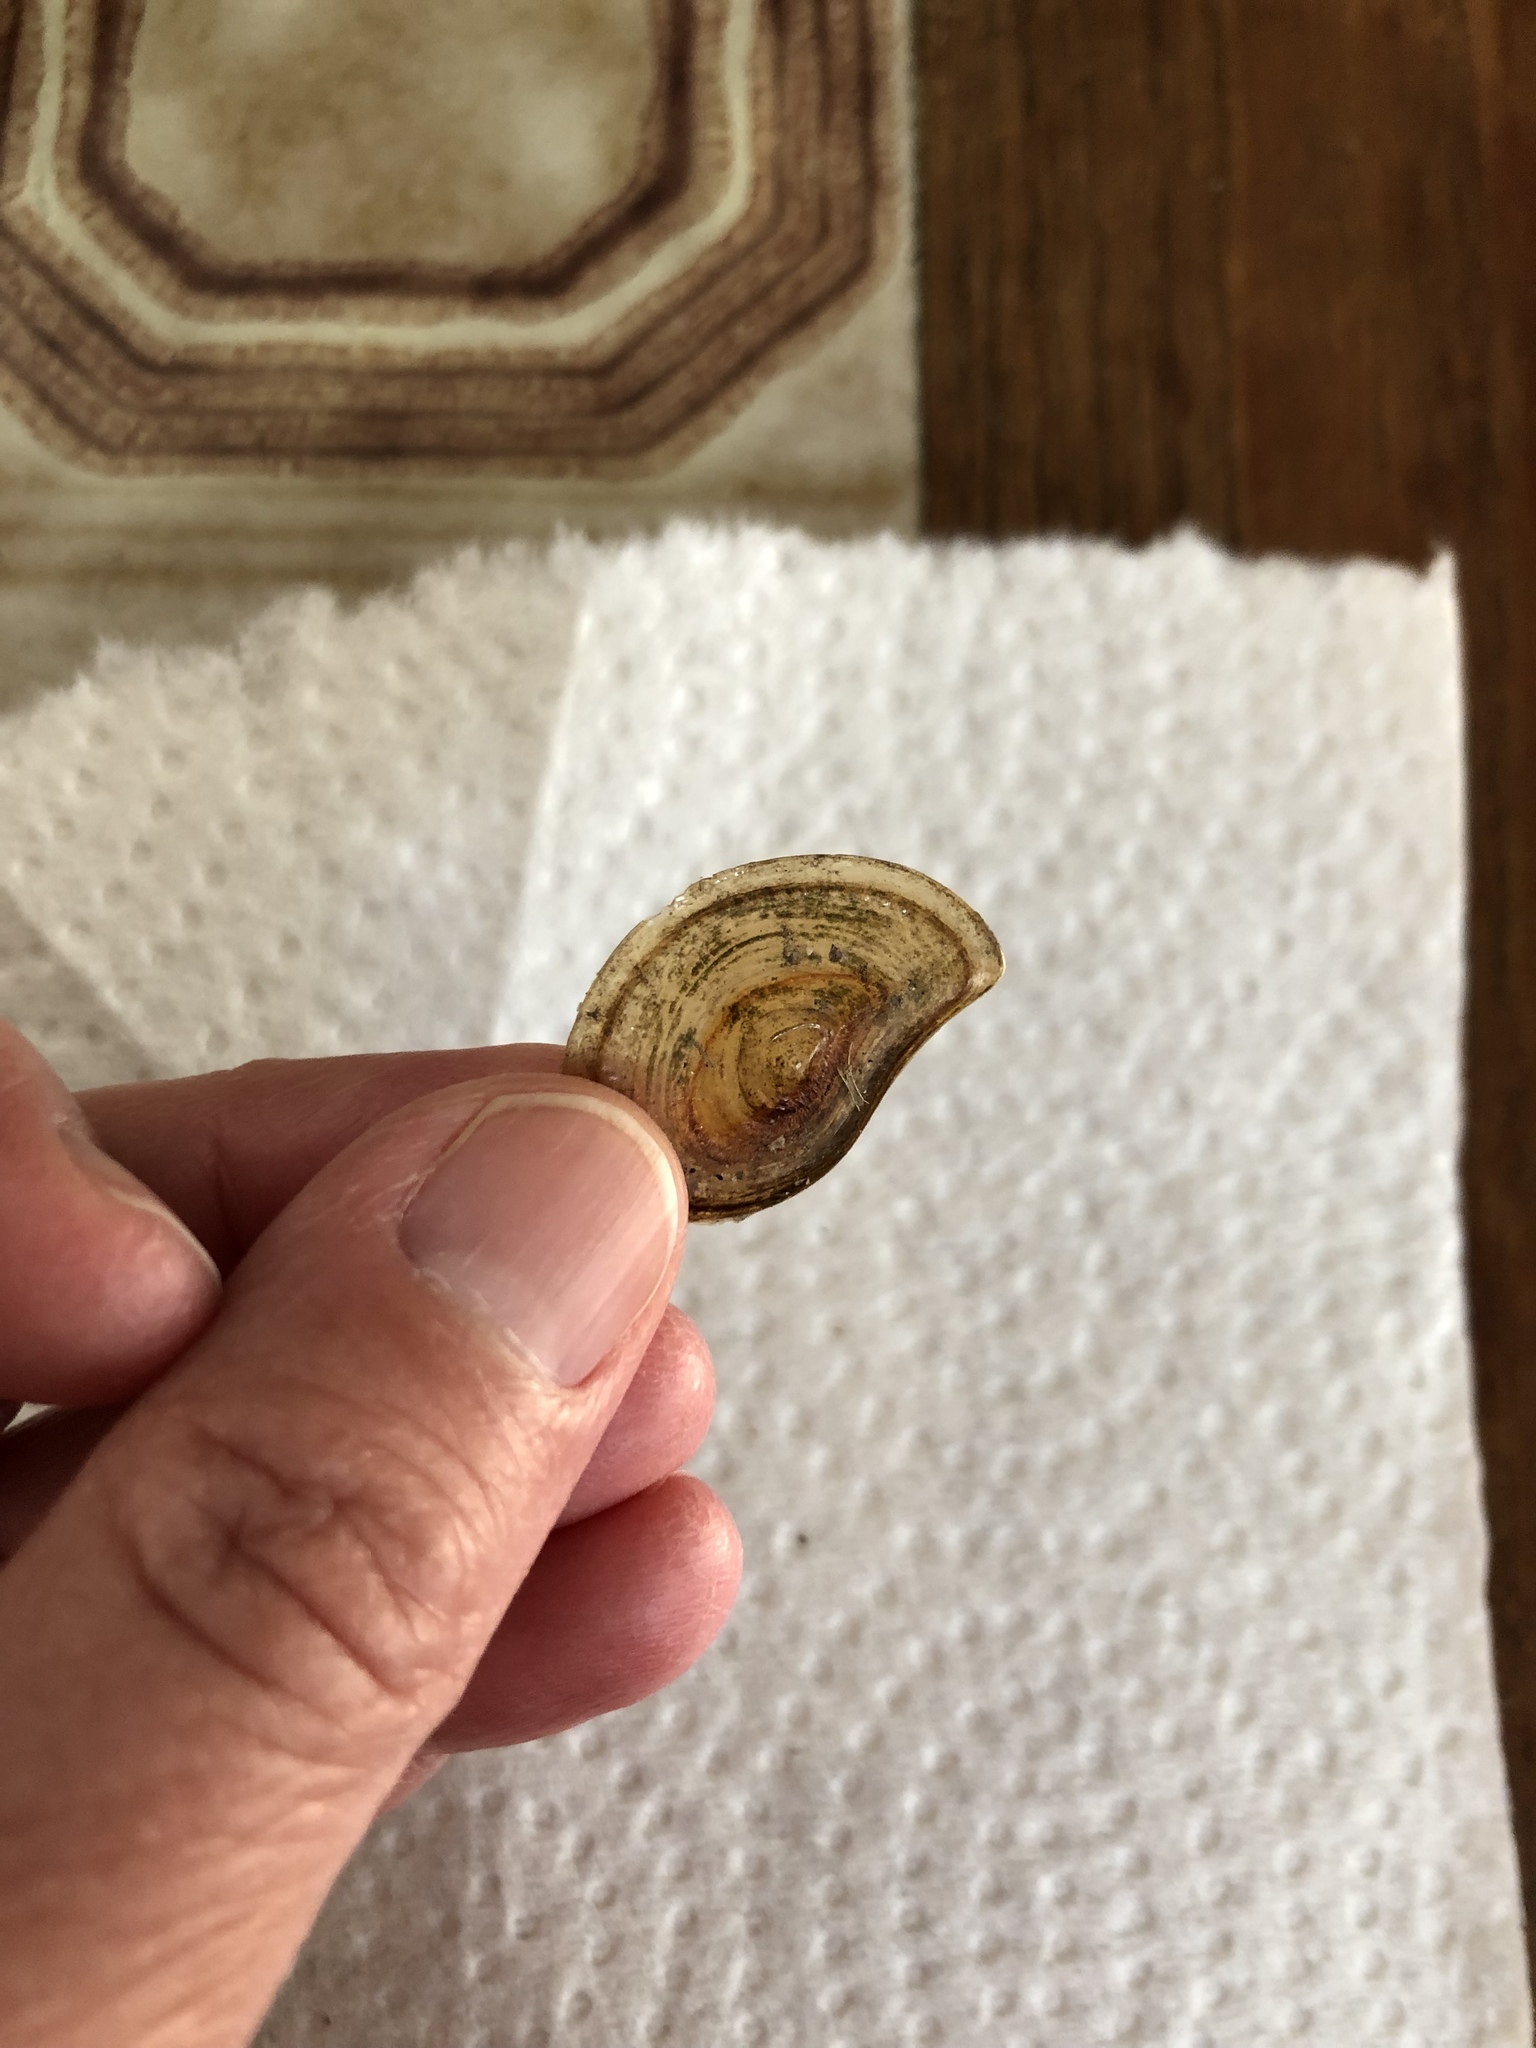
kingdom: Animalia
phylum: Mollusca
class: Gastropoda
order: Architaenioglossa
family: Viviparidae
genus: Cipangopaludina
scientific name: Cipangopaludina chinensis
